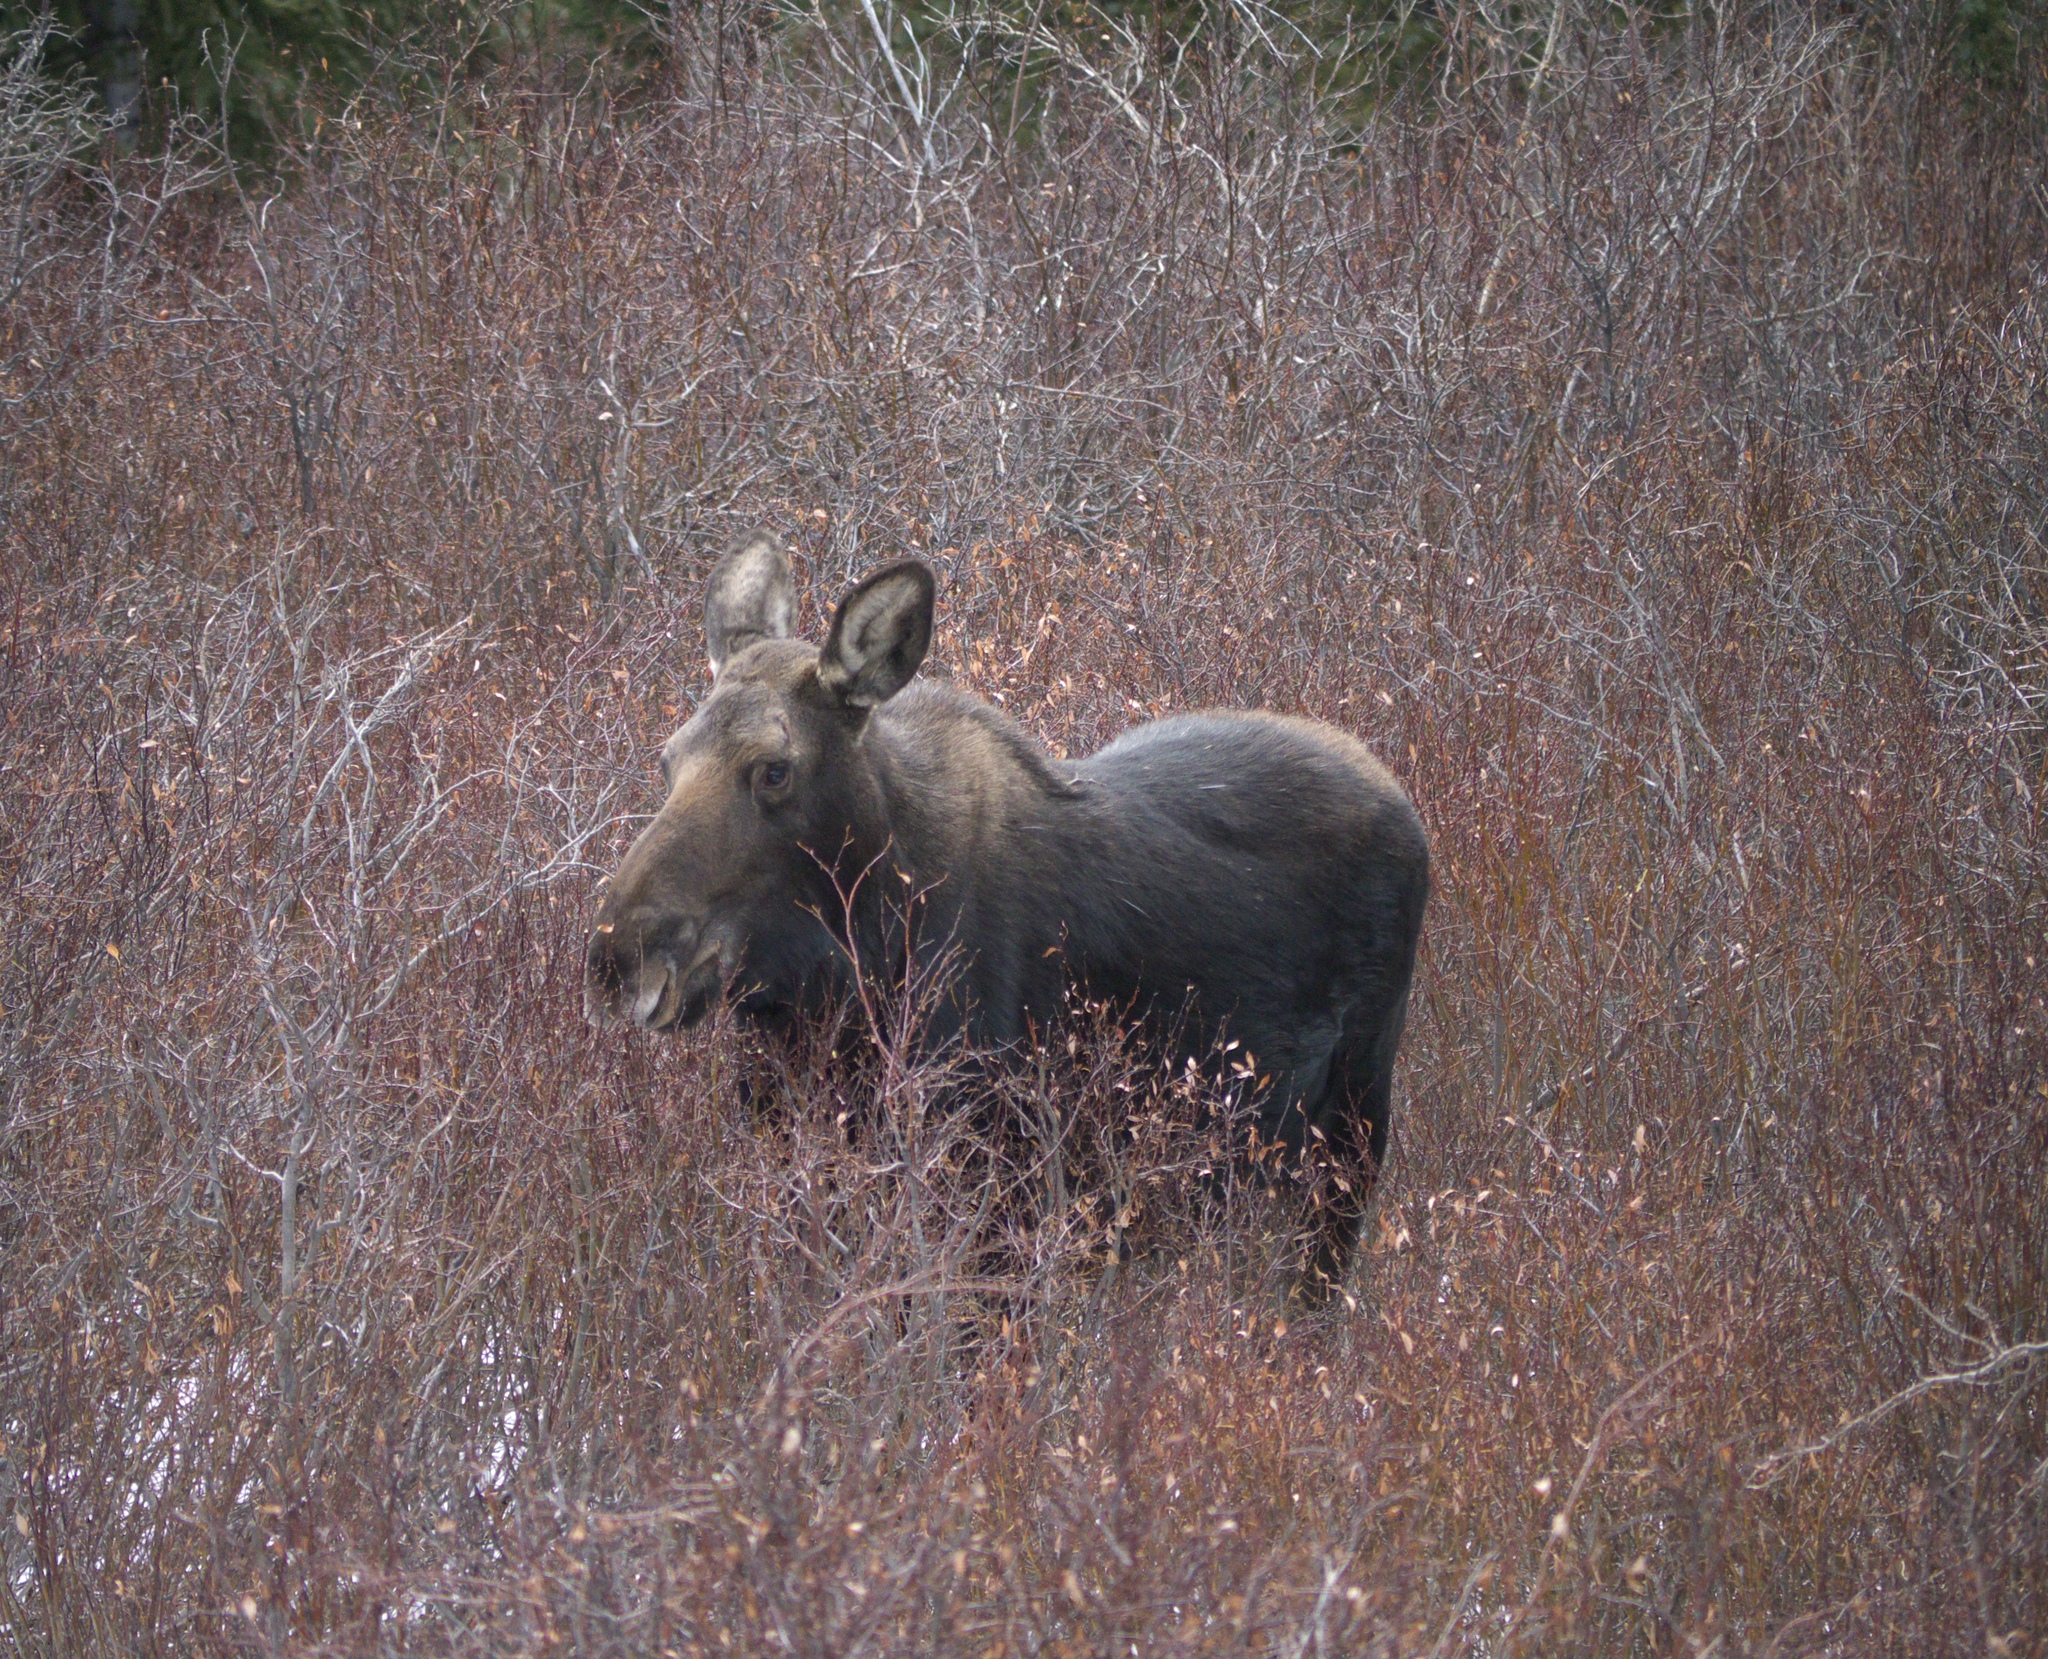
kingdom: Animalia
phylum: Chordata
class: Mammalia
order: Artiodactyla
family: Cervidae
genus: Alces
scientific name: Alces alces
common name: Moose
